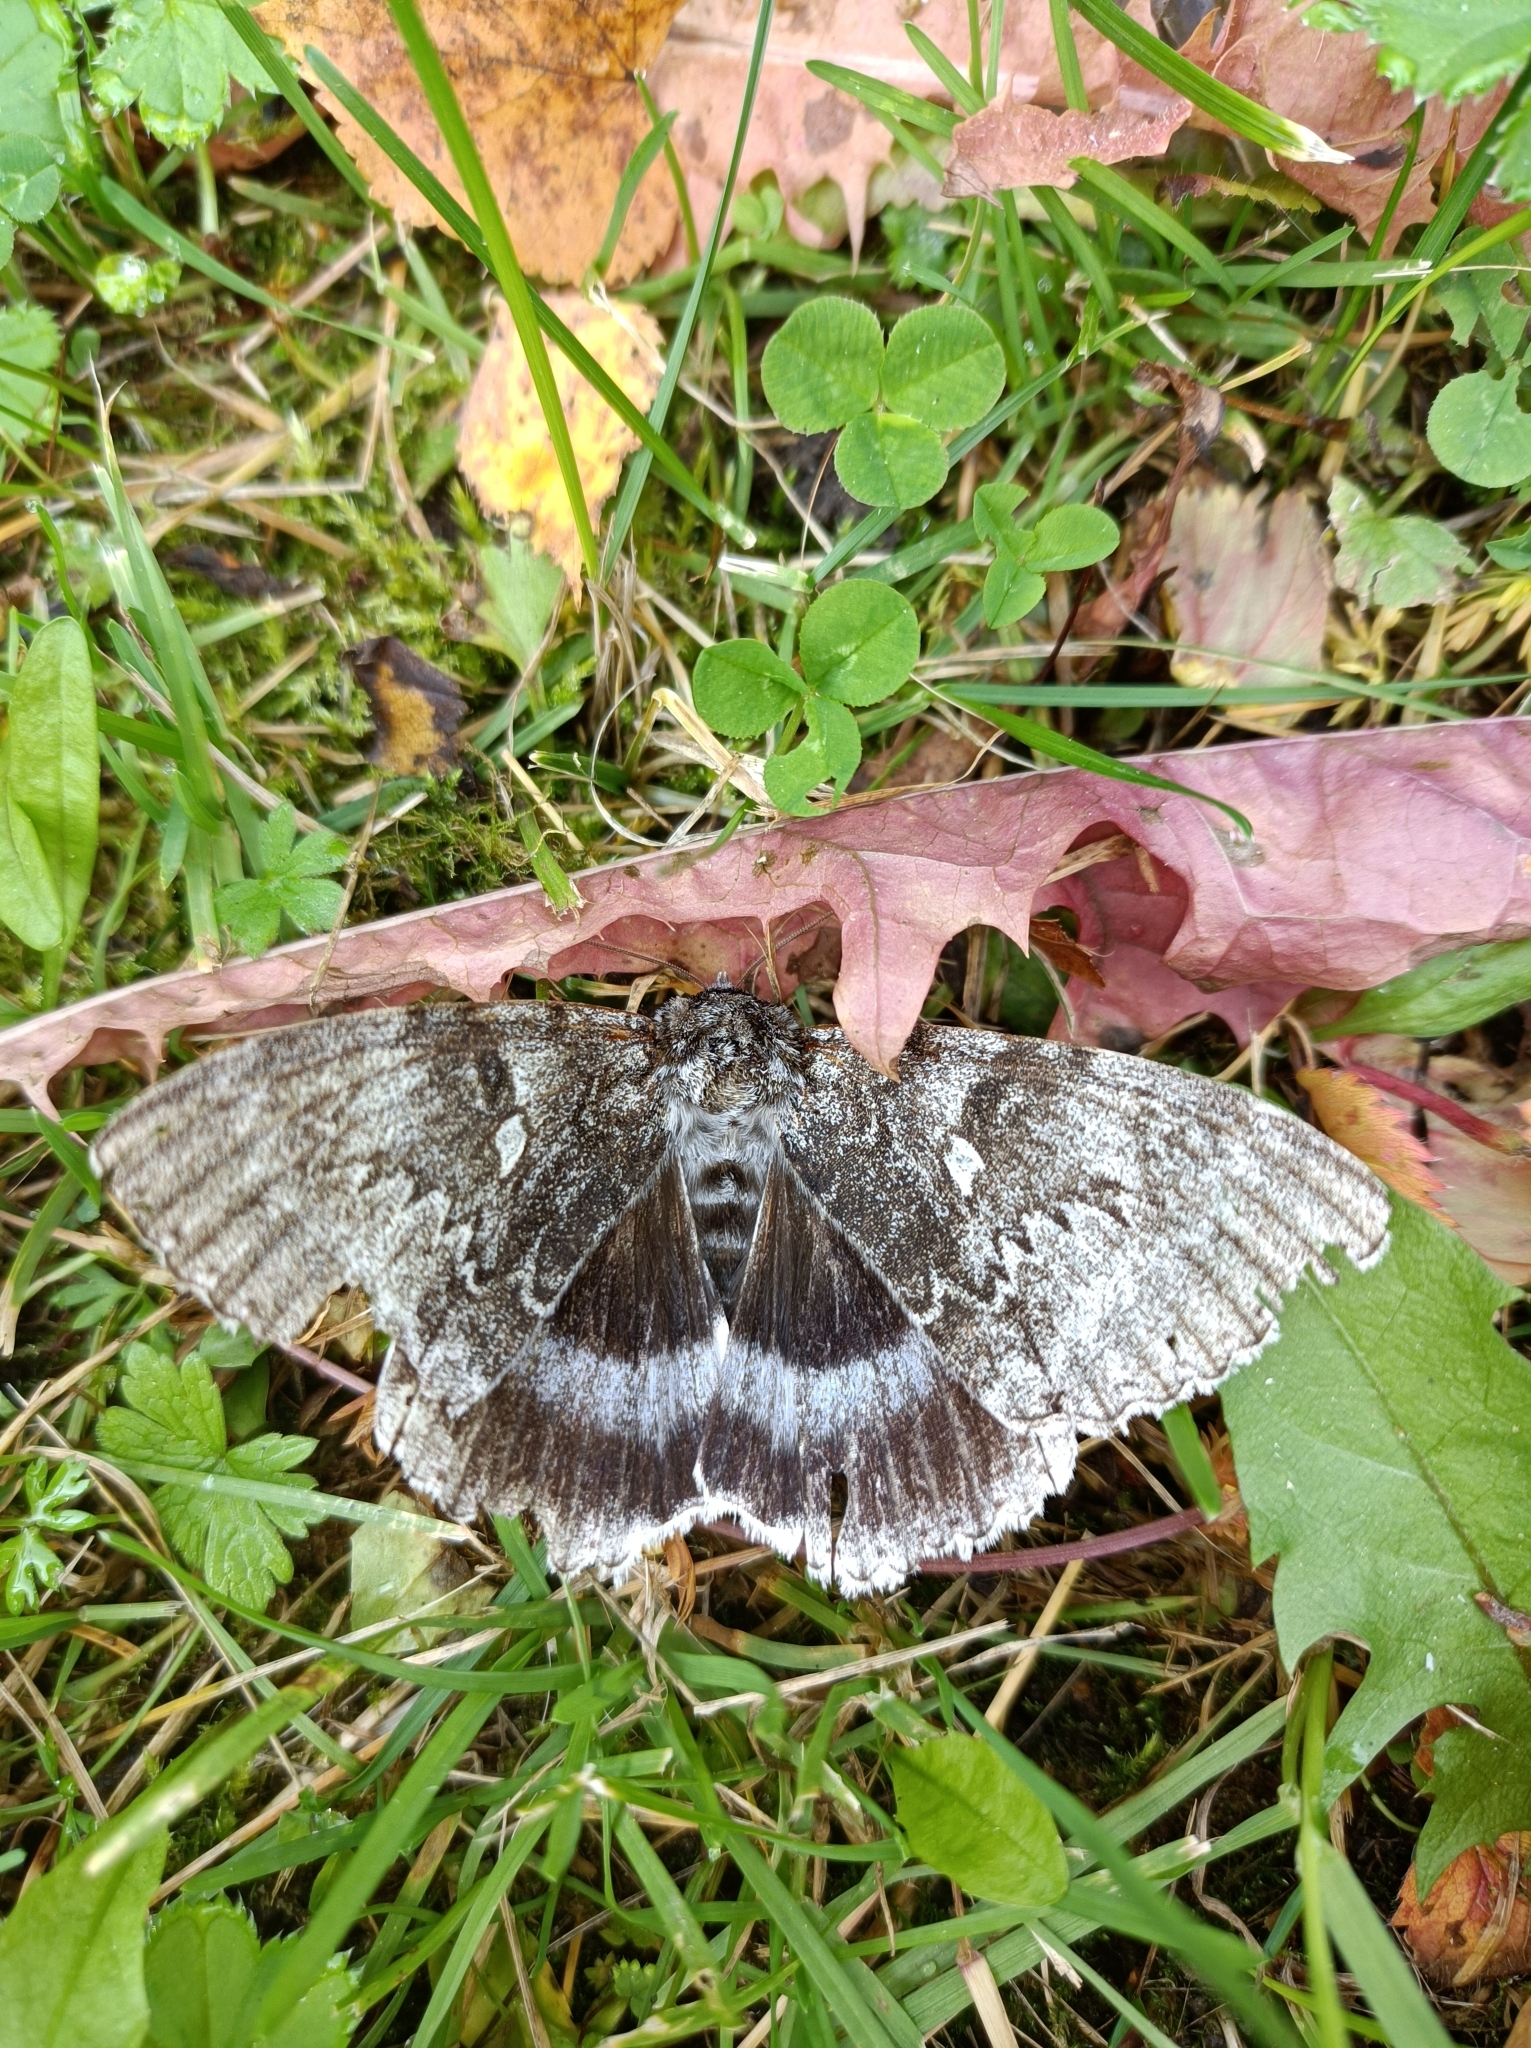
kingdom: Animalia
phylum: Arthropoda
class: Insecta
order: Lepidoptera
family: Erebidae
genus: Catocala
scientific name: Catocala fraxini
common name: Clifden nonpareil
